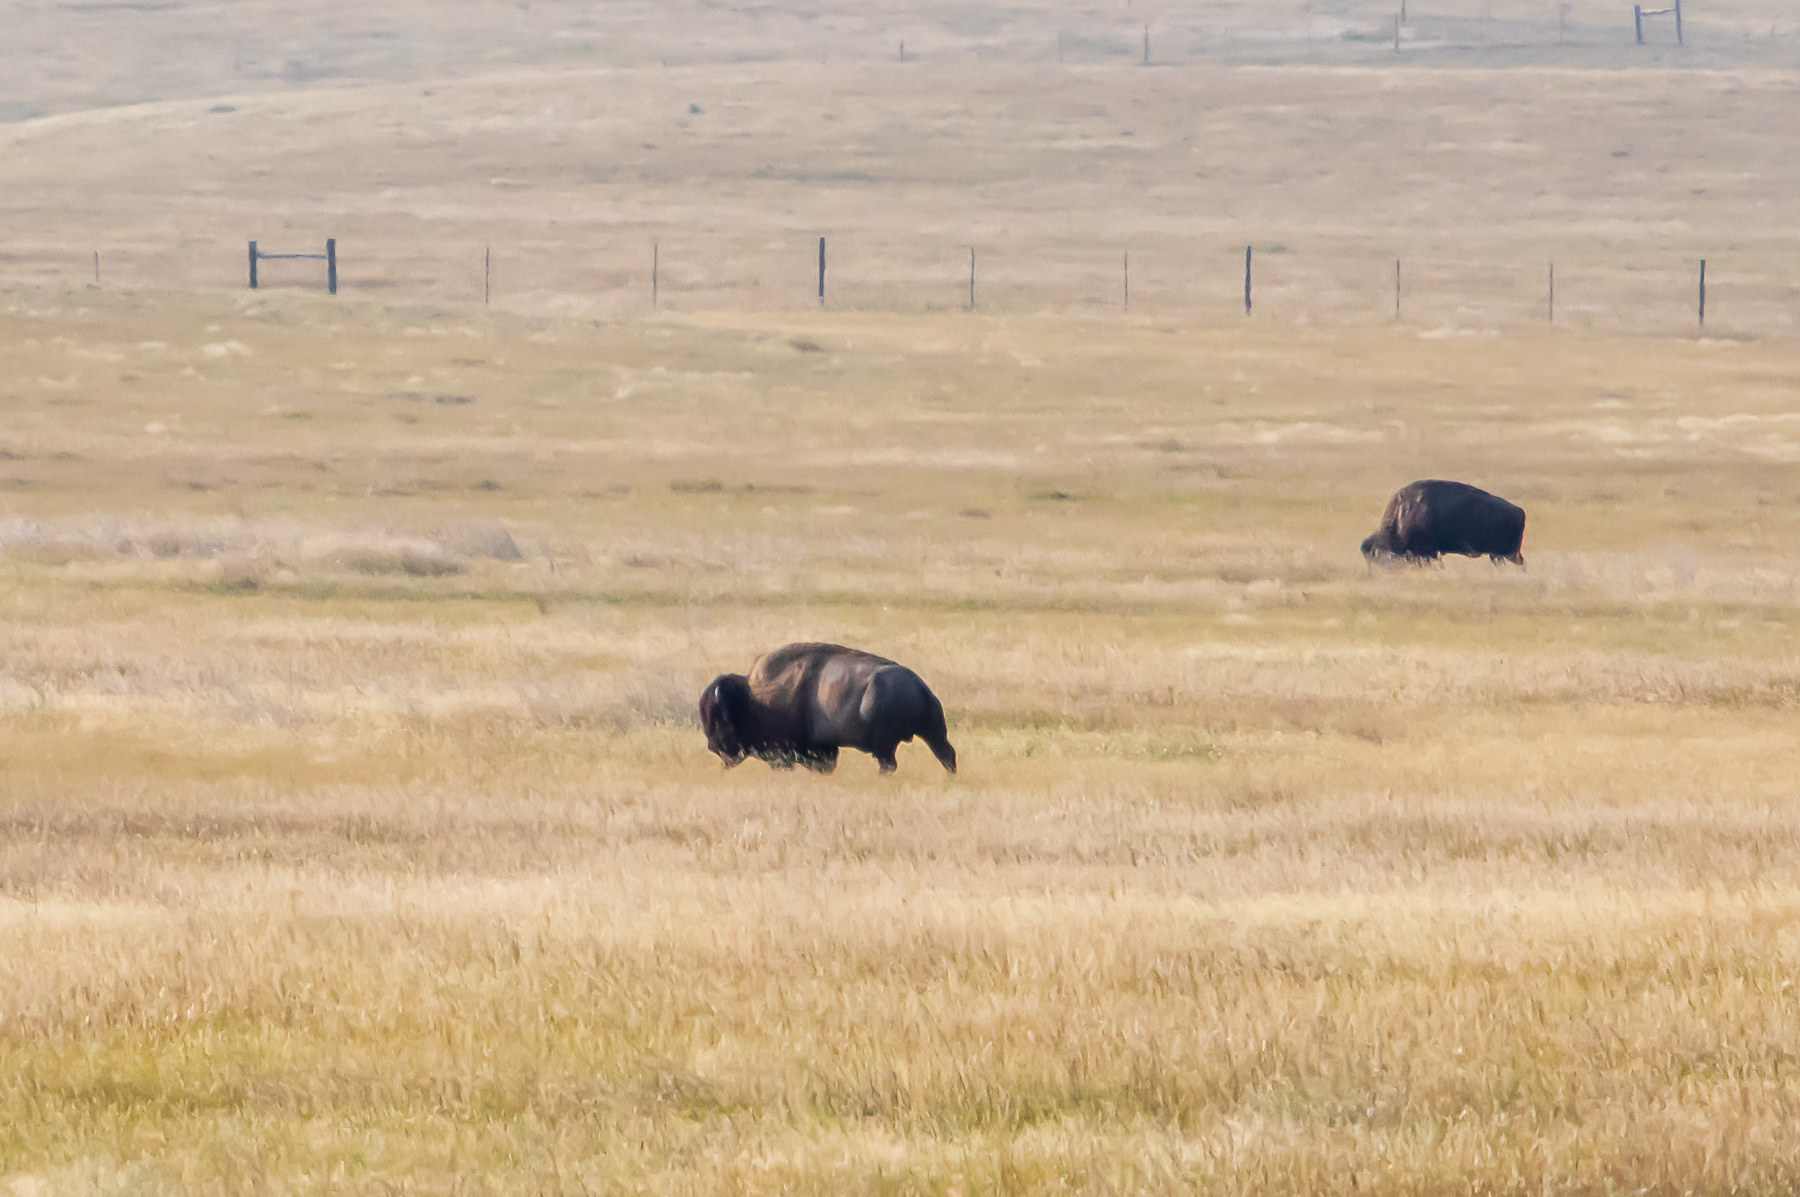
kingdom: Animalia
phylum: Chordata
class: Mammalia
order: Artiodactyla
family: Bovidae
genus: Bison
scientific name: Bison bison
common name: American bison
